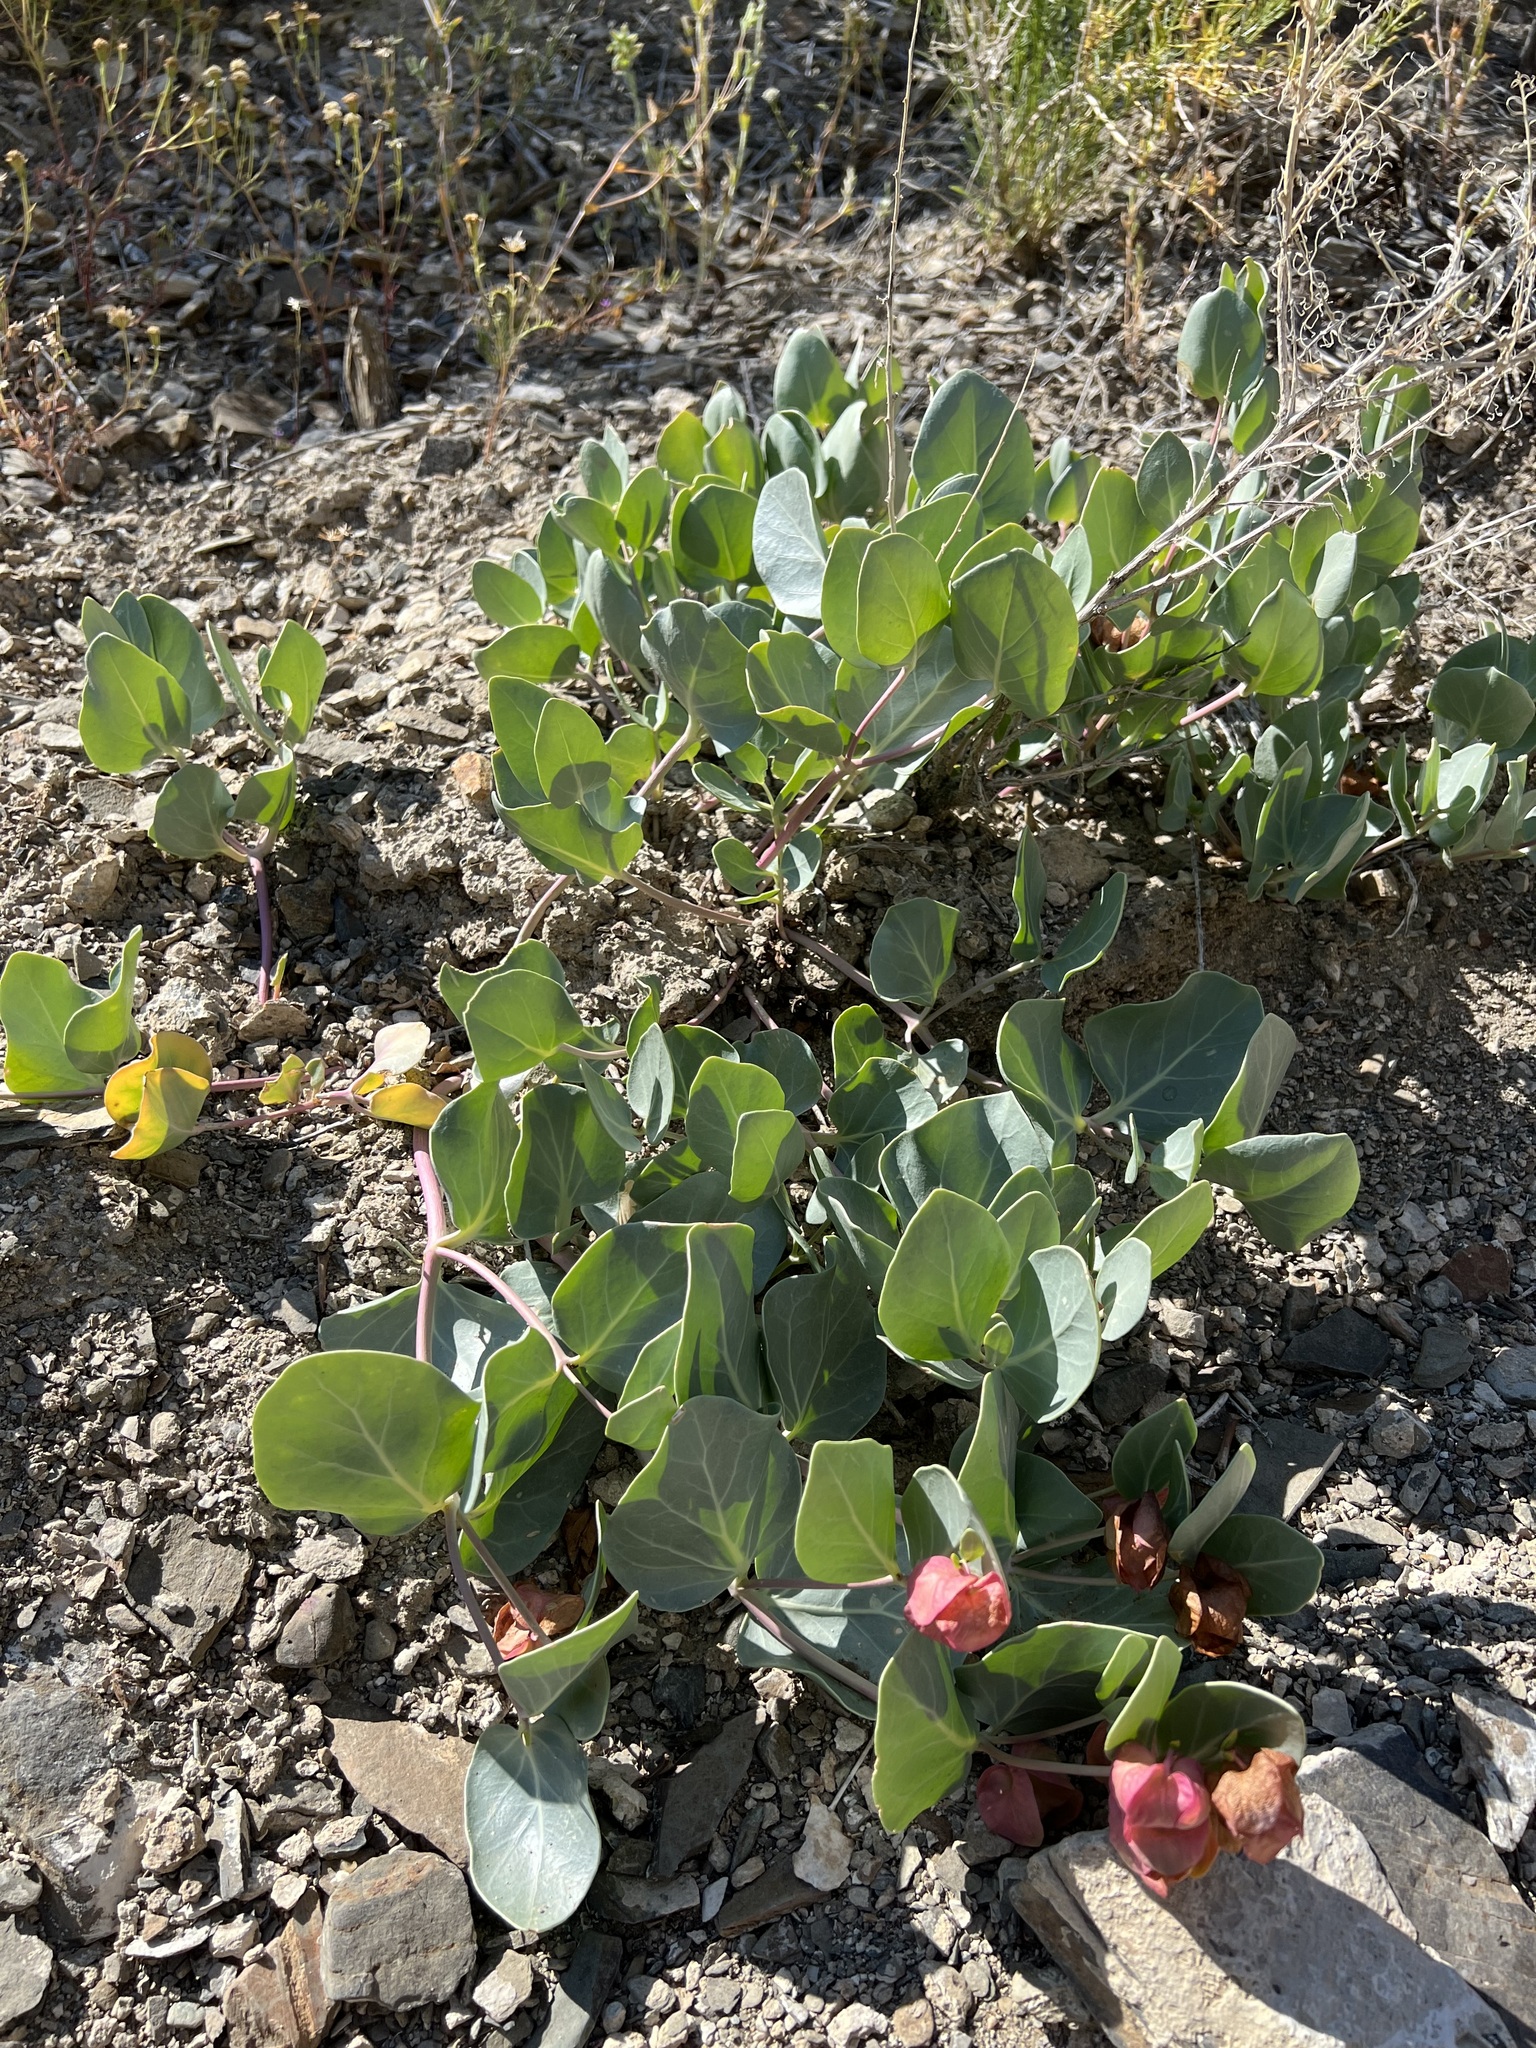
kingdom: Plantae
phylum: Tracheophyta
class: Magnoliopsida
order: Caryophyllales
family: Nyctaginaceae
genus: Mirabilis
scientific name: Mirabilis alipes
